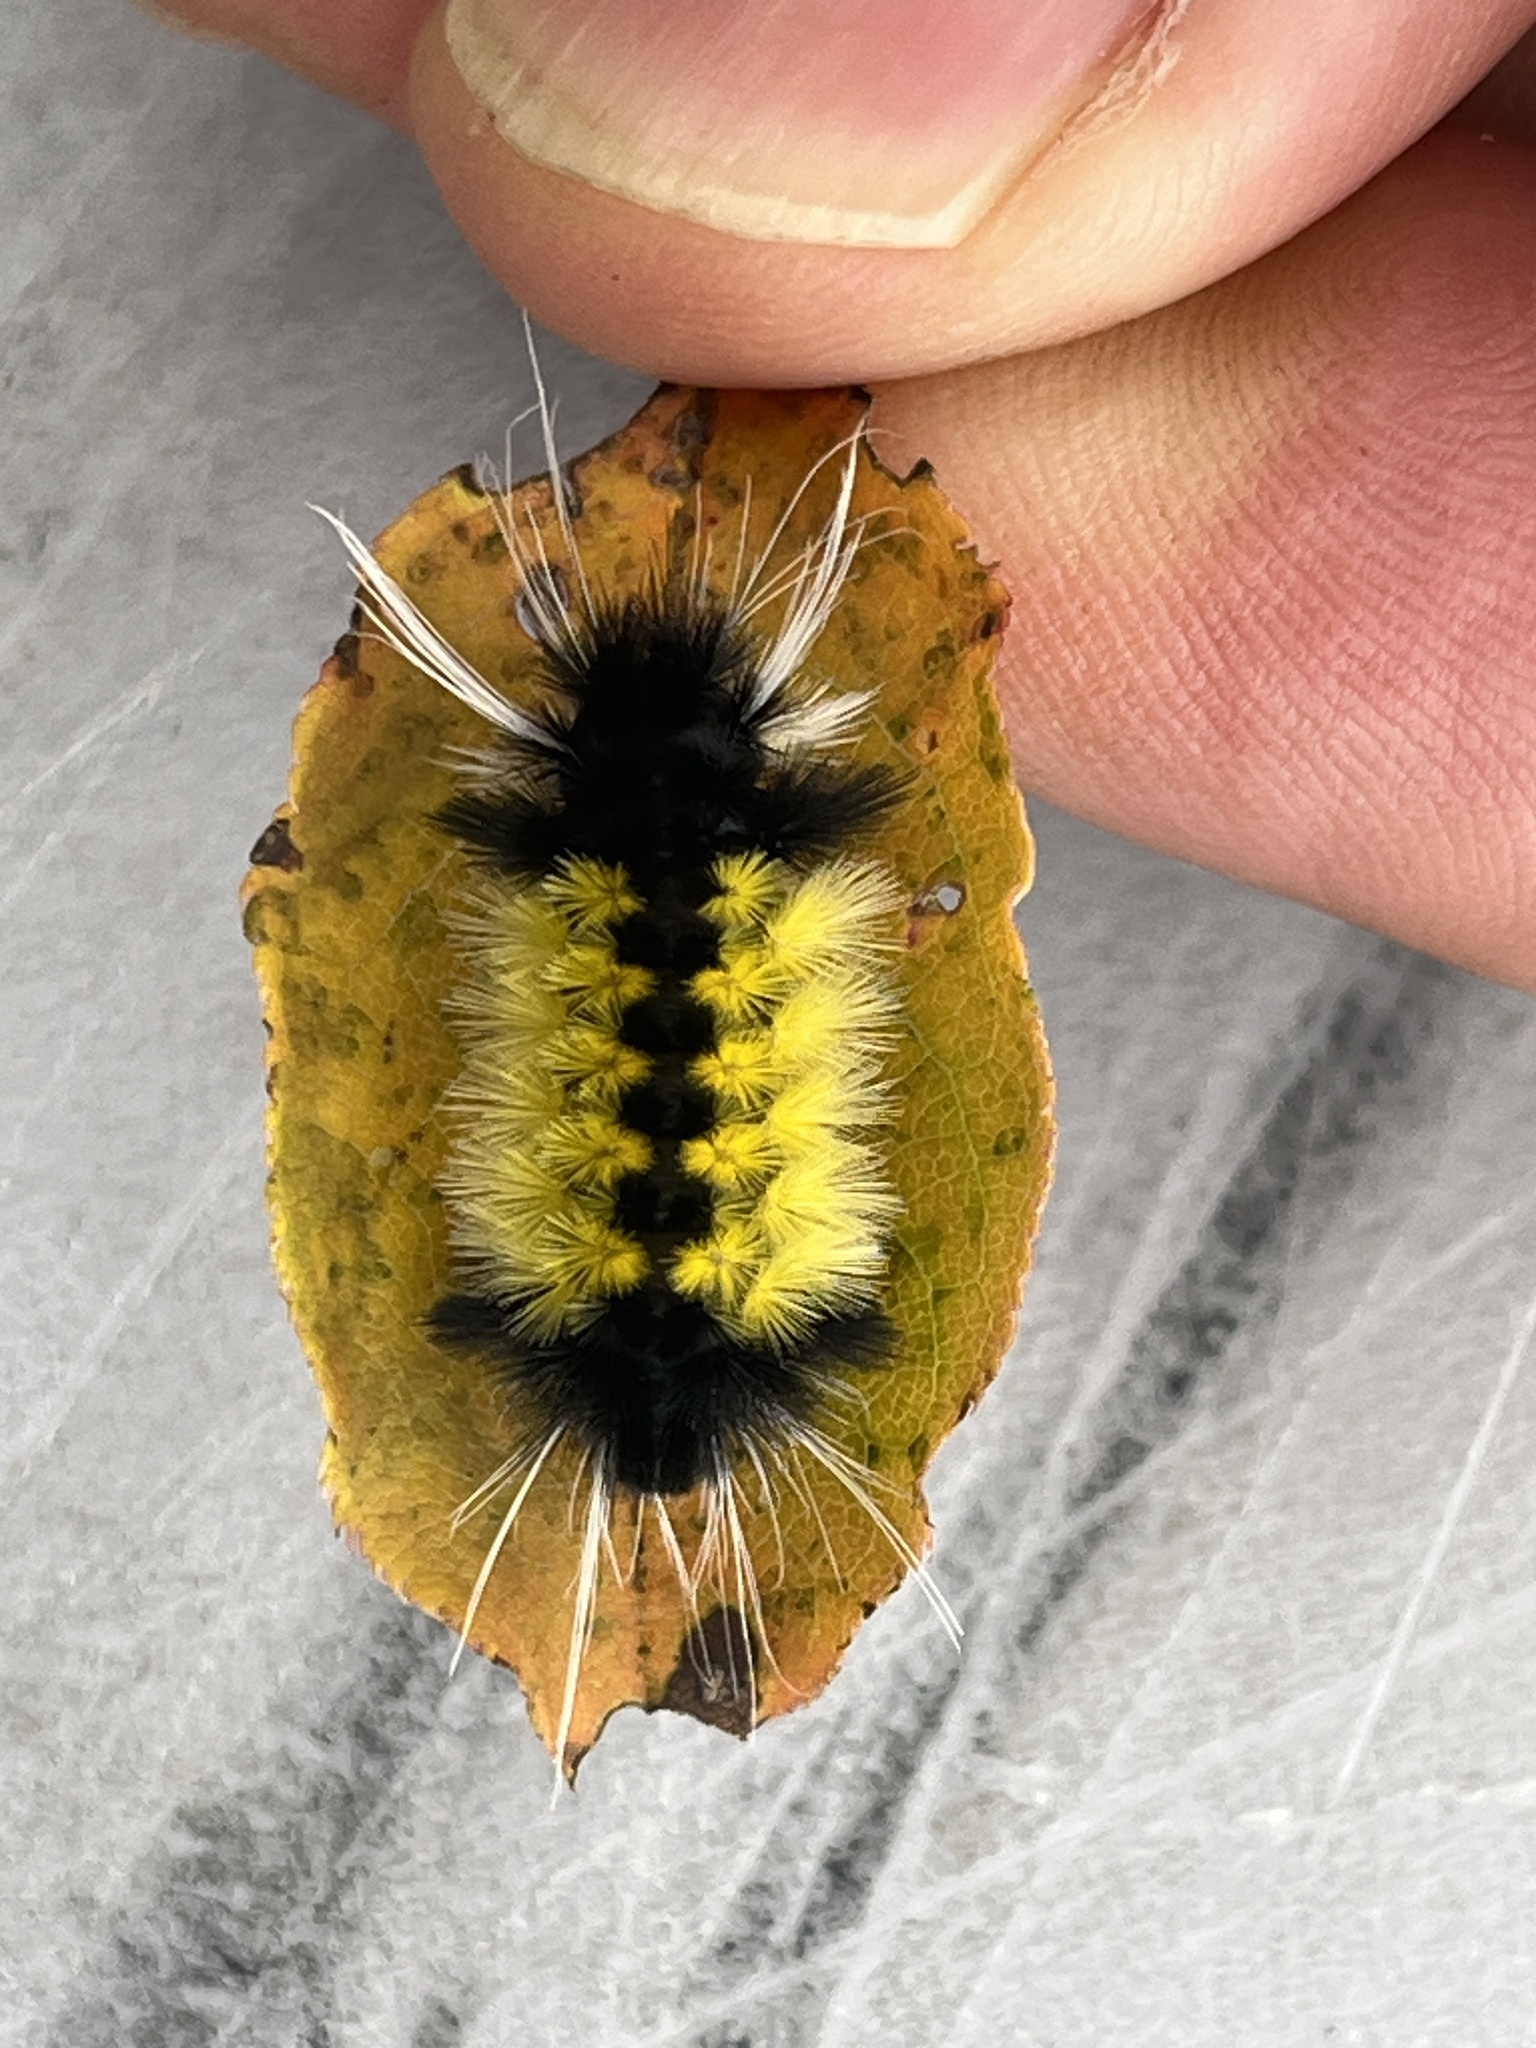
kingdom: Animalia
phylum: Arthropoda
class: Insecta
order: Lepidoptera
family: Erebidae
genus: Lophocampa
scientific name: Lophocampa maculata
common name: Spotted tussock moth
